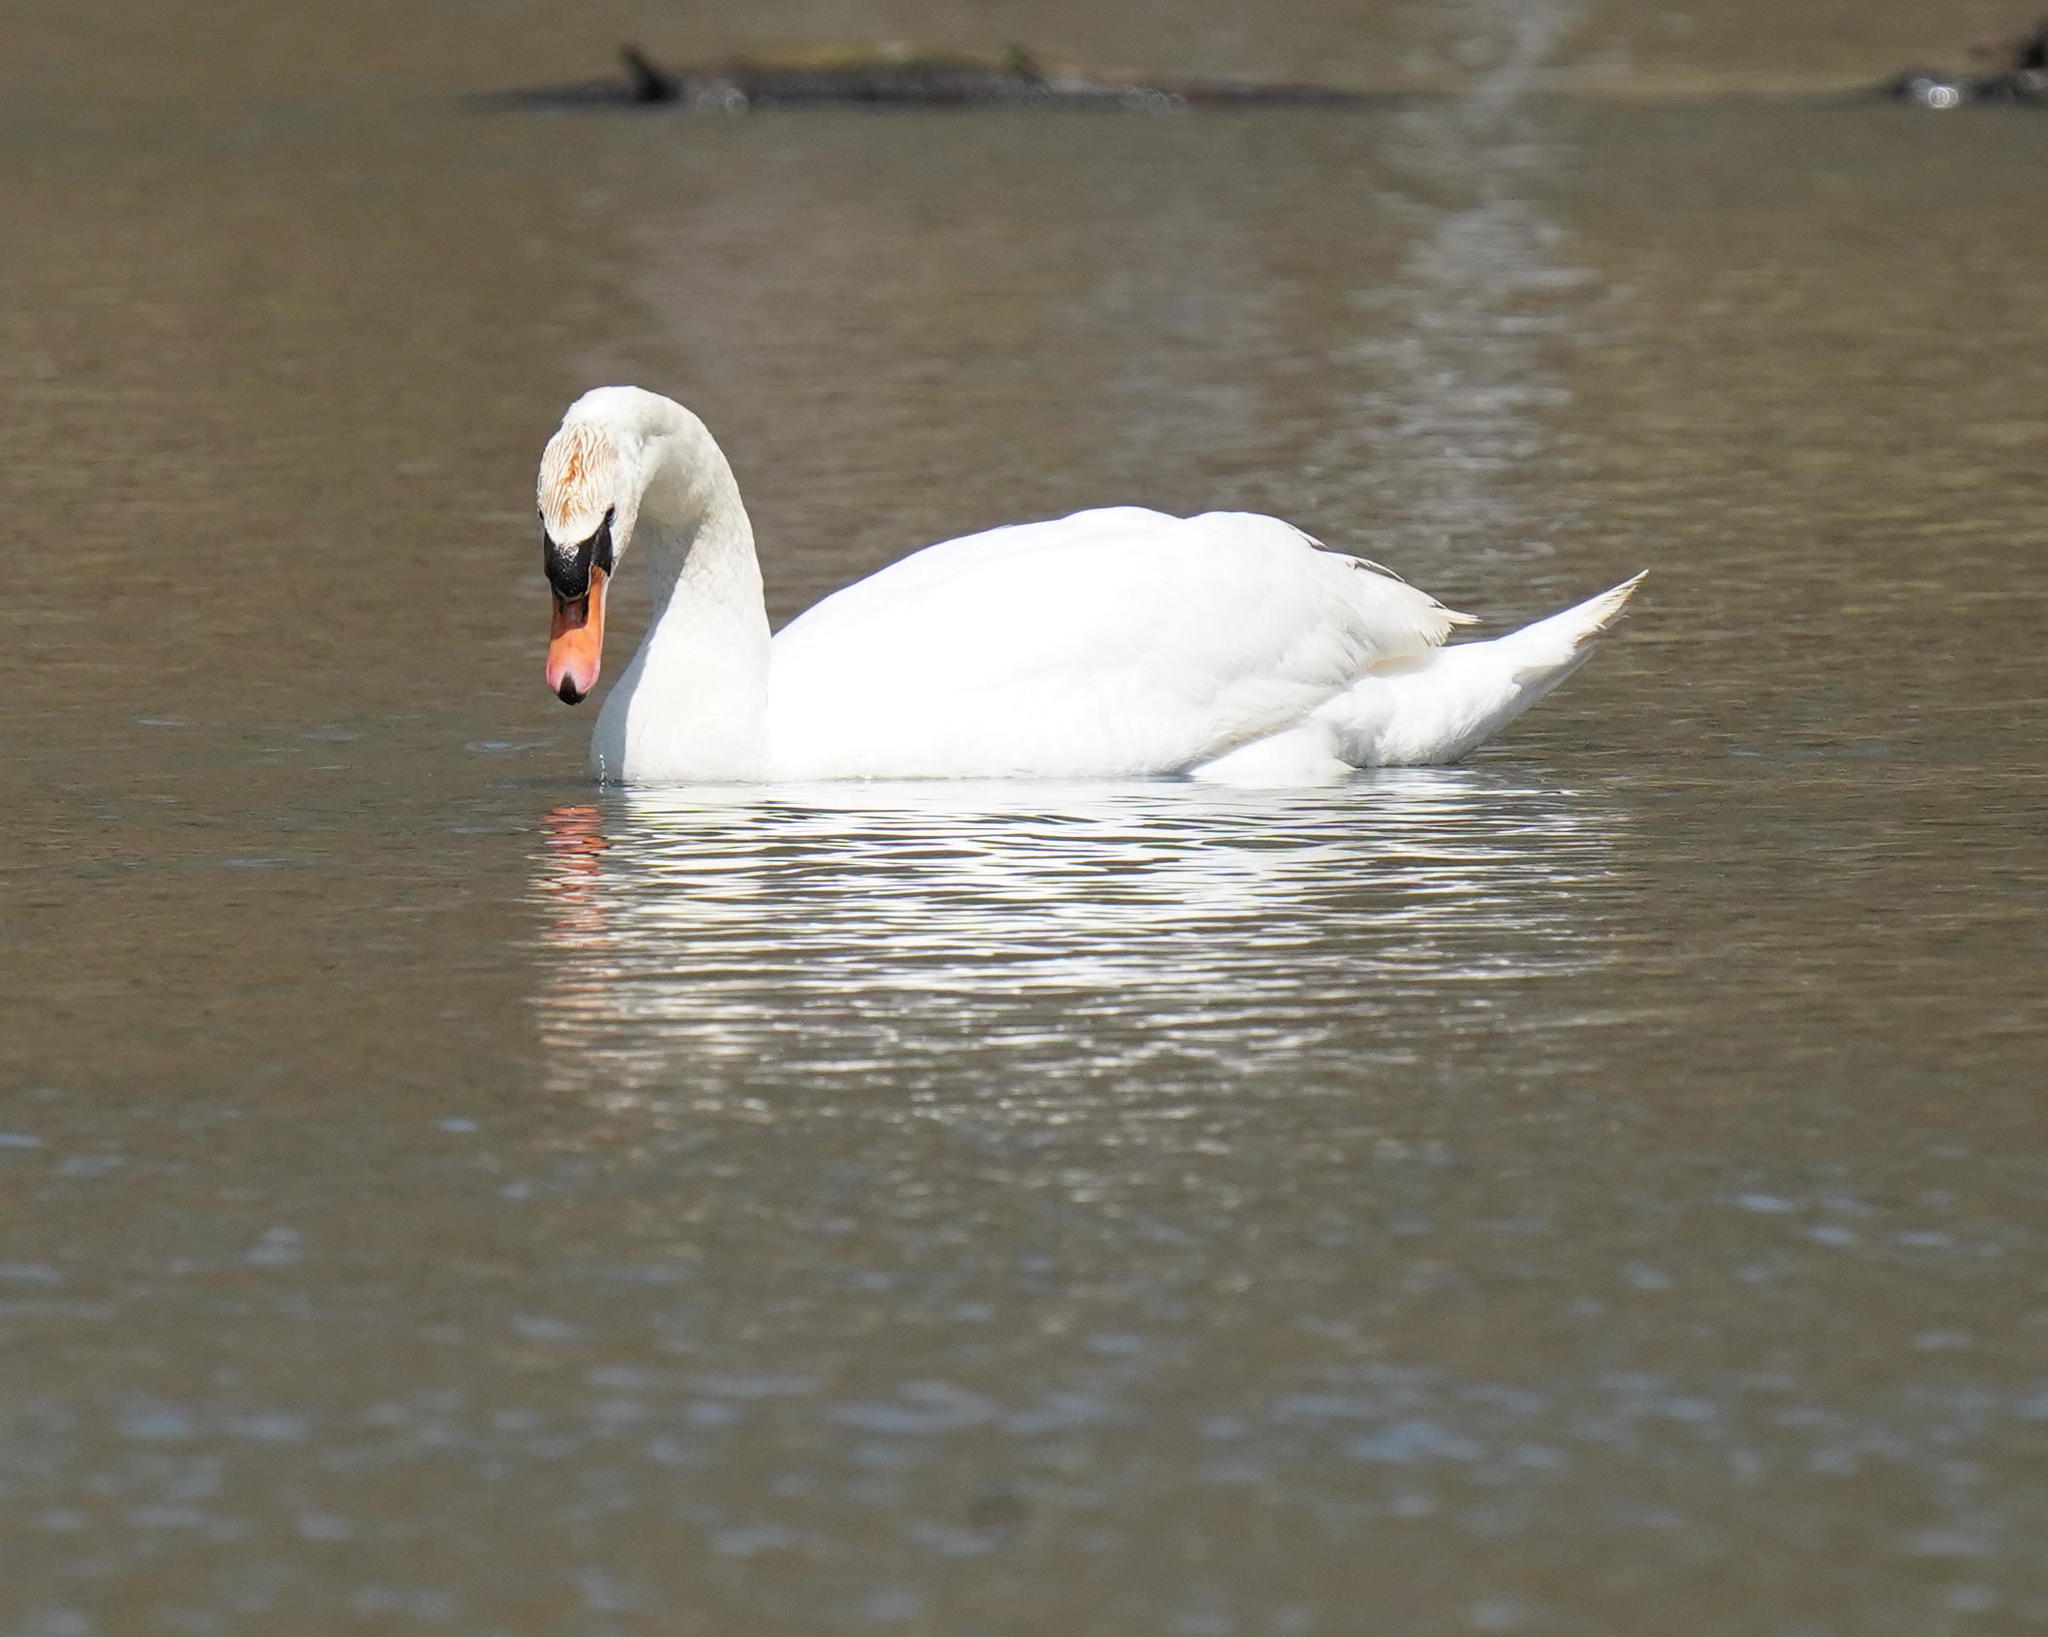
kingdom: Animalia
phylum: Chordata
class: Aves
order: Anseriformes
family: Anatidae
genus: Cygnus
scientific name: Cygnus olor
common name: Mute swan
